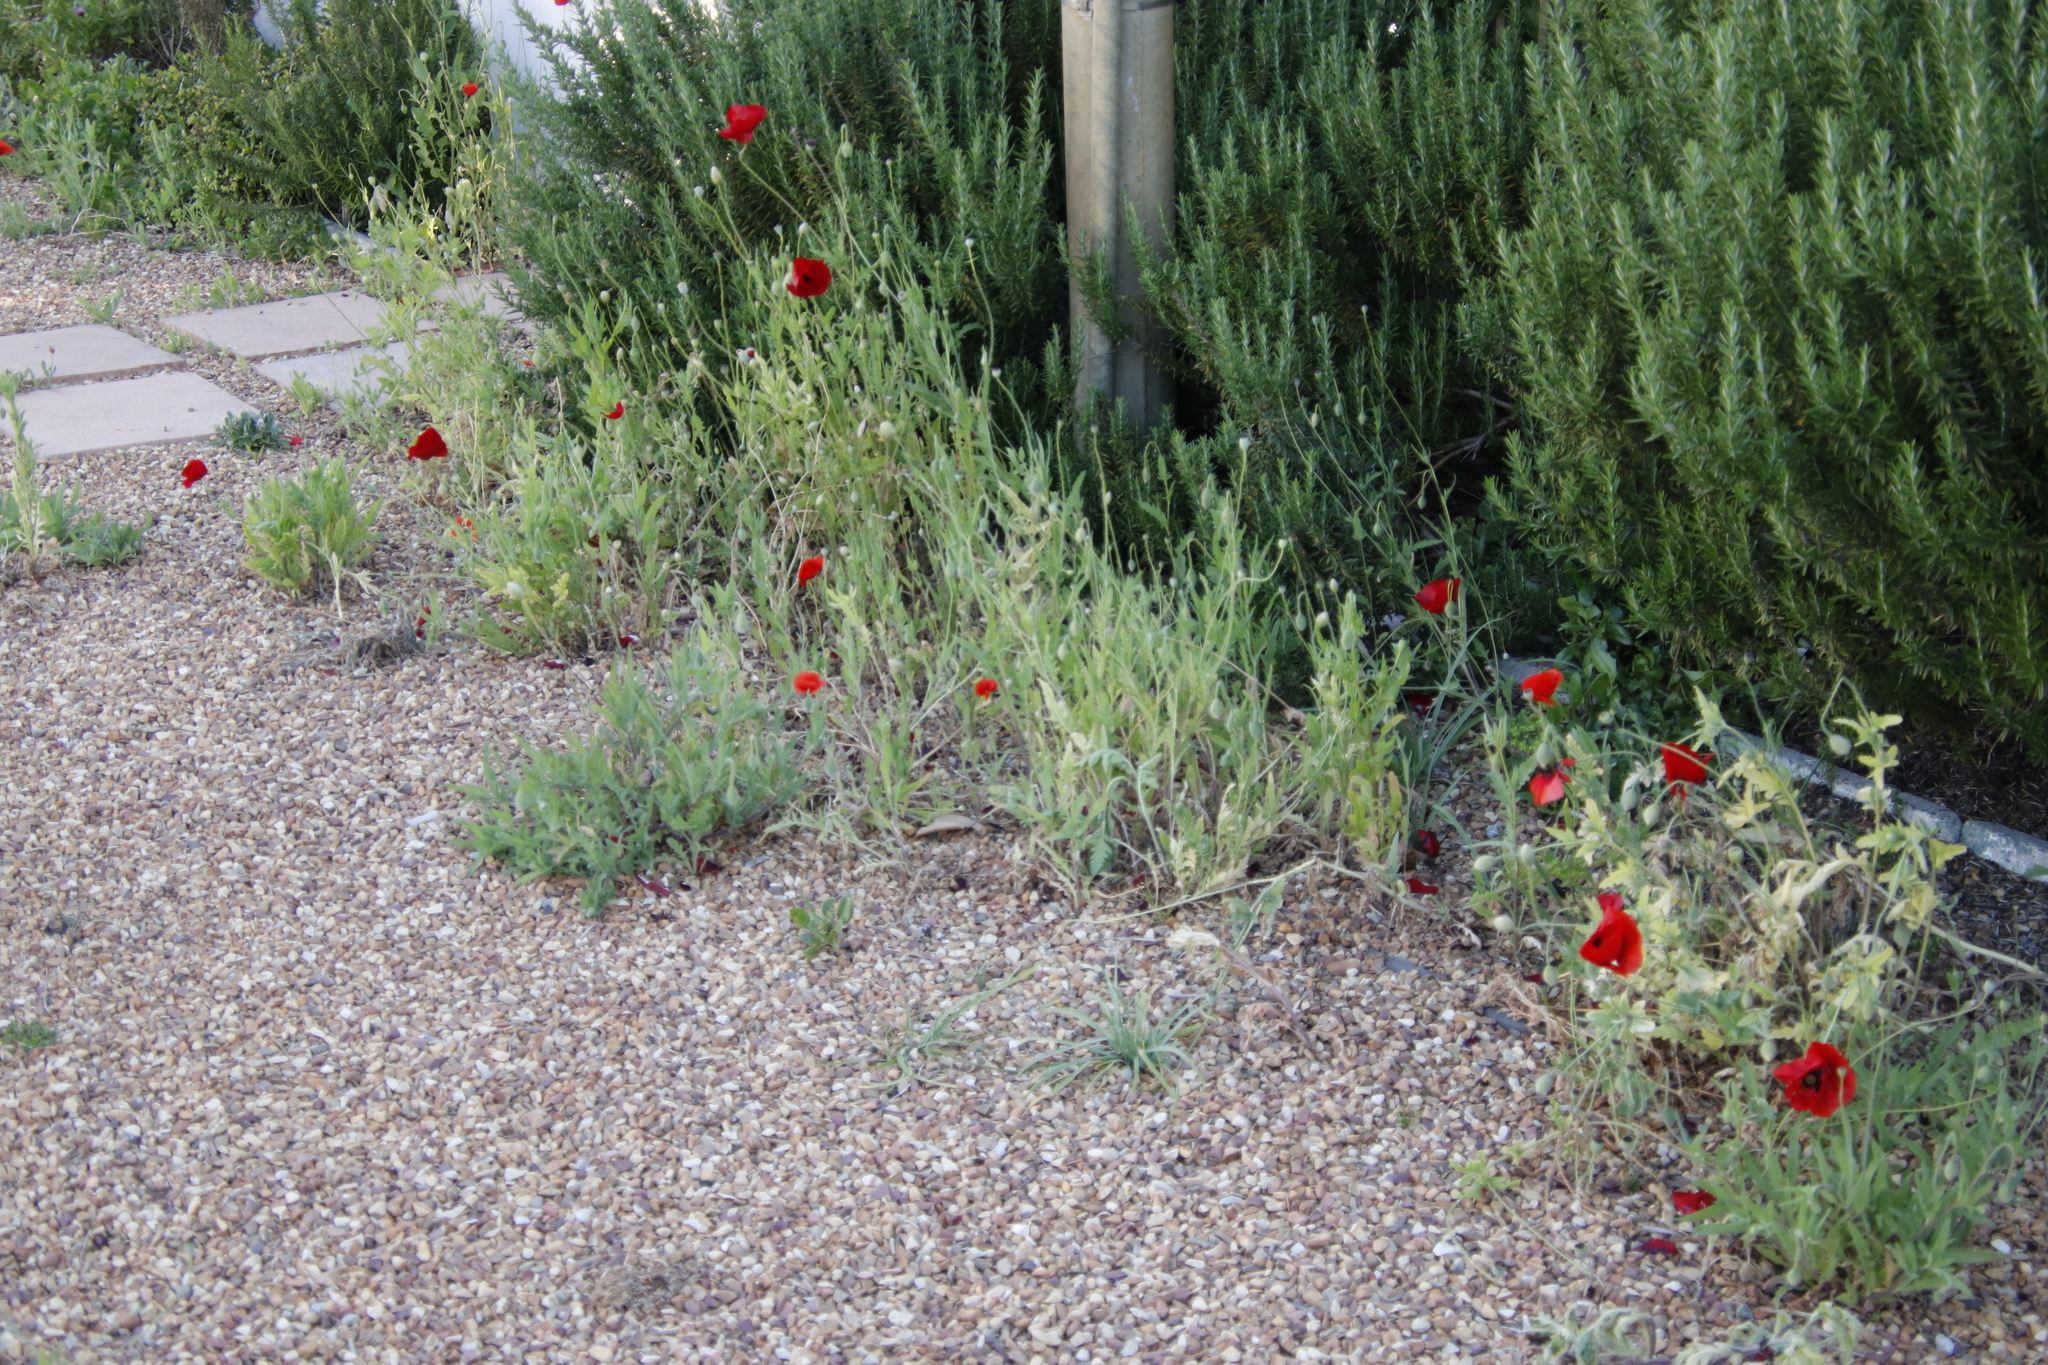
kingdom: Plantae
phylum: Tracheophyta
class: Magnoliopsida
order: Ranunculales
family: Papaveraceae
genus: Papaver
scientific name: Papaver rhoeas
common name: Corn poppy
